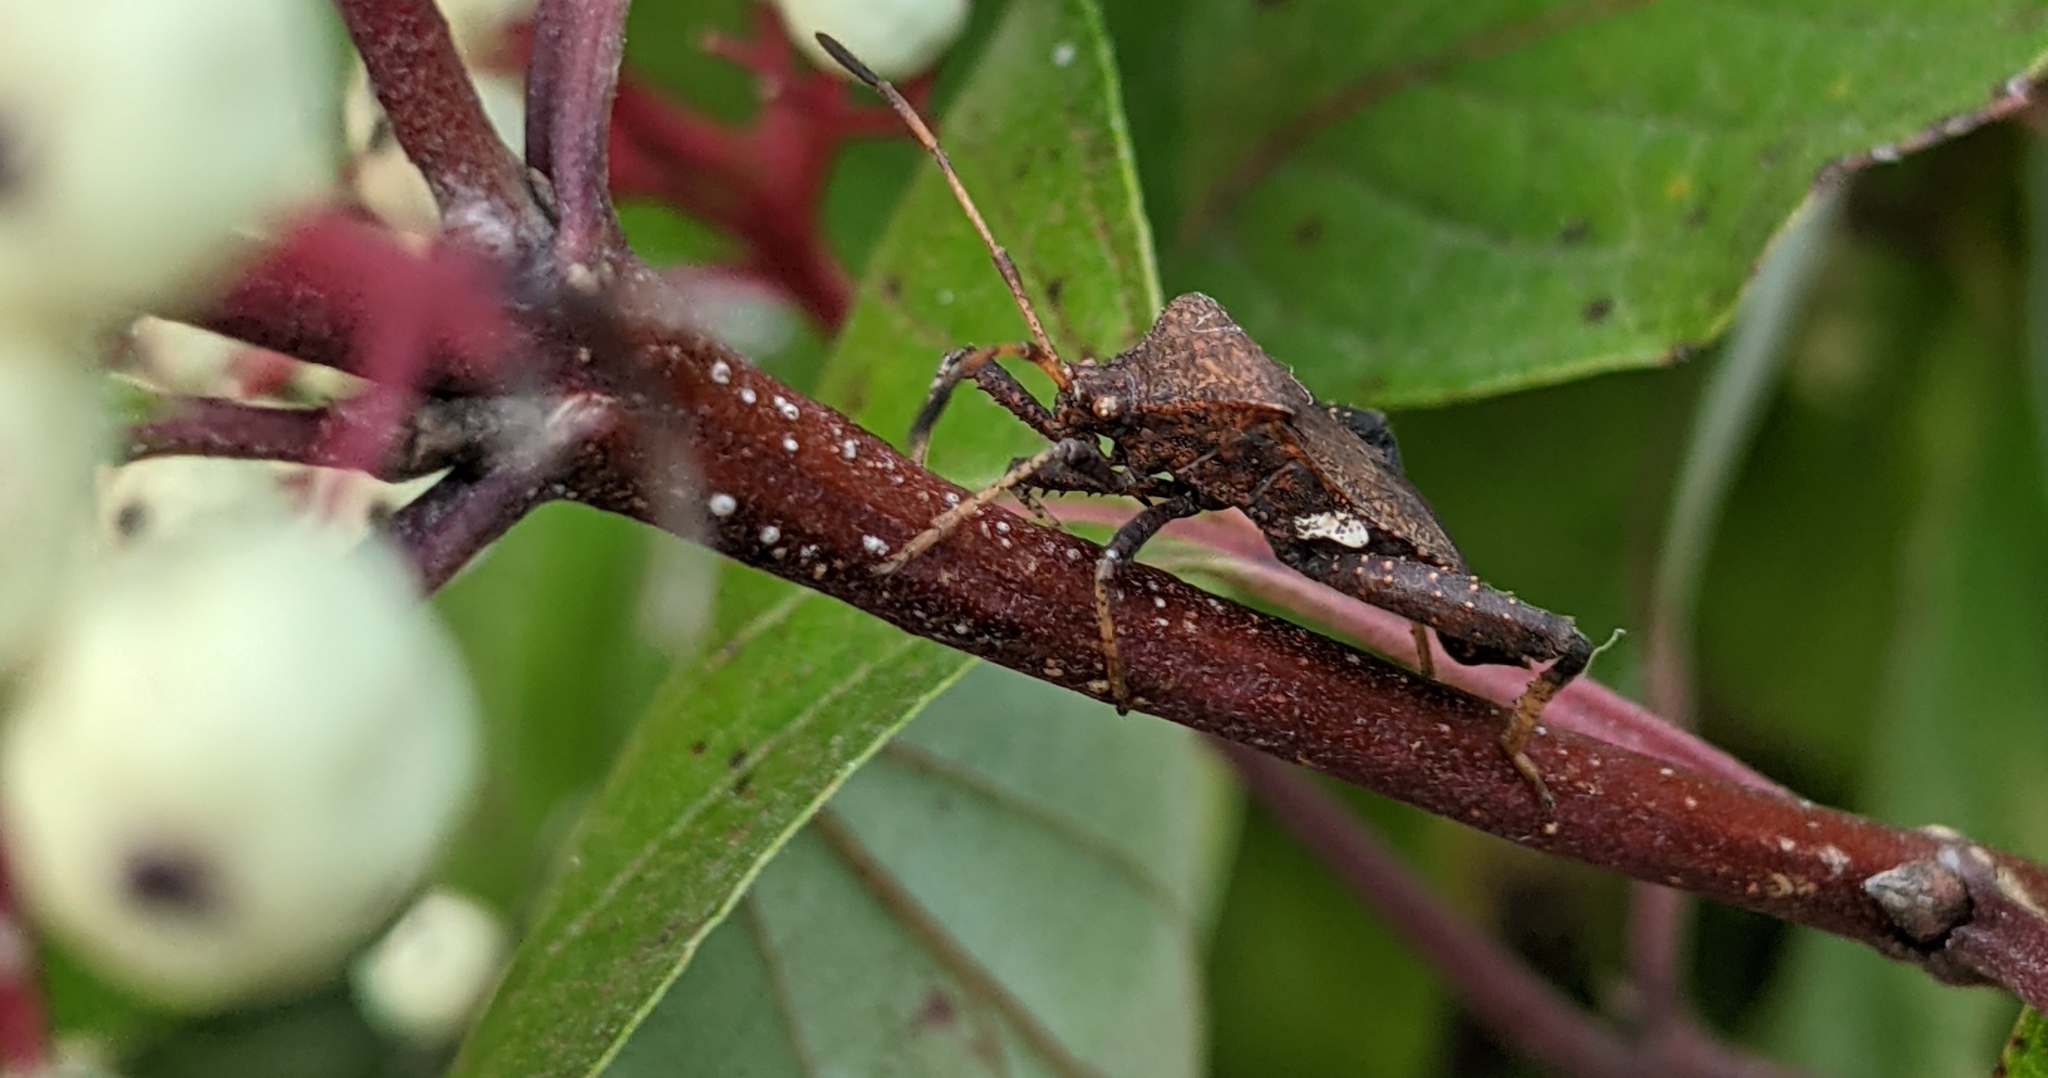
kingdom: Animalia
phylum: Arthropoda
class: Insecta
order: Hemiptera
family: Coreidae
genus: Euthochtha
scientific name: Euthochtha galeator
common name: Helmeted squash bug
